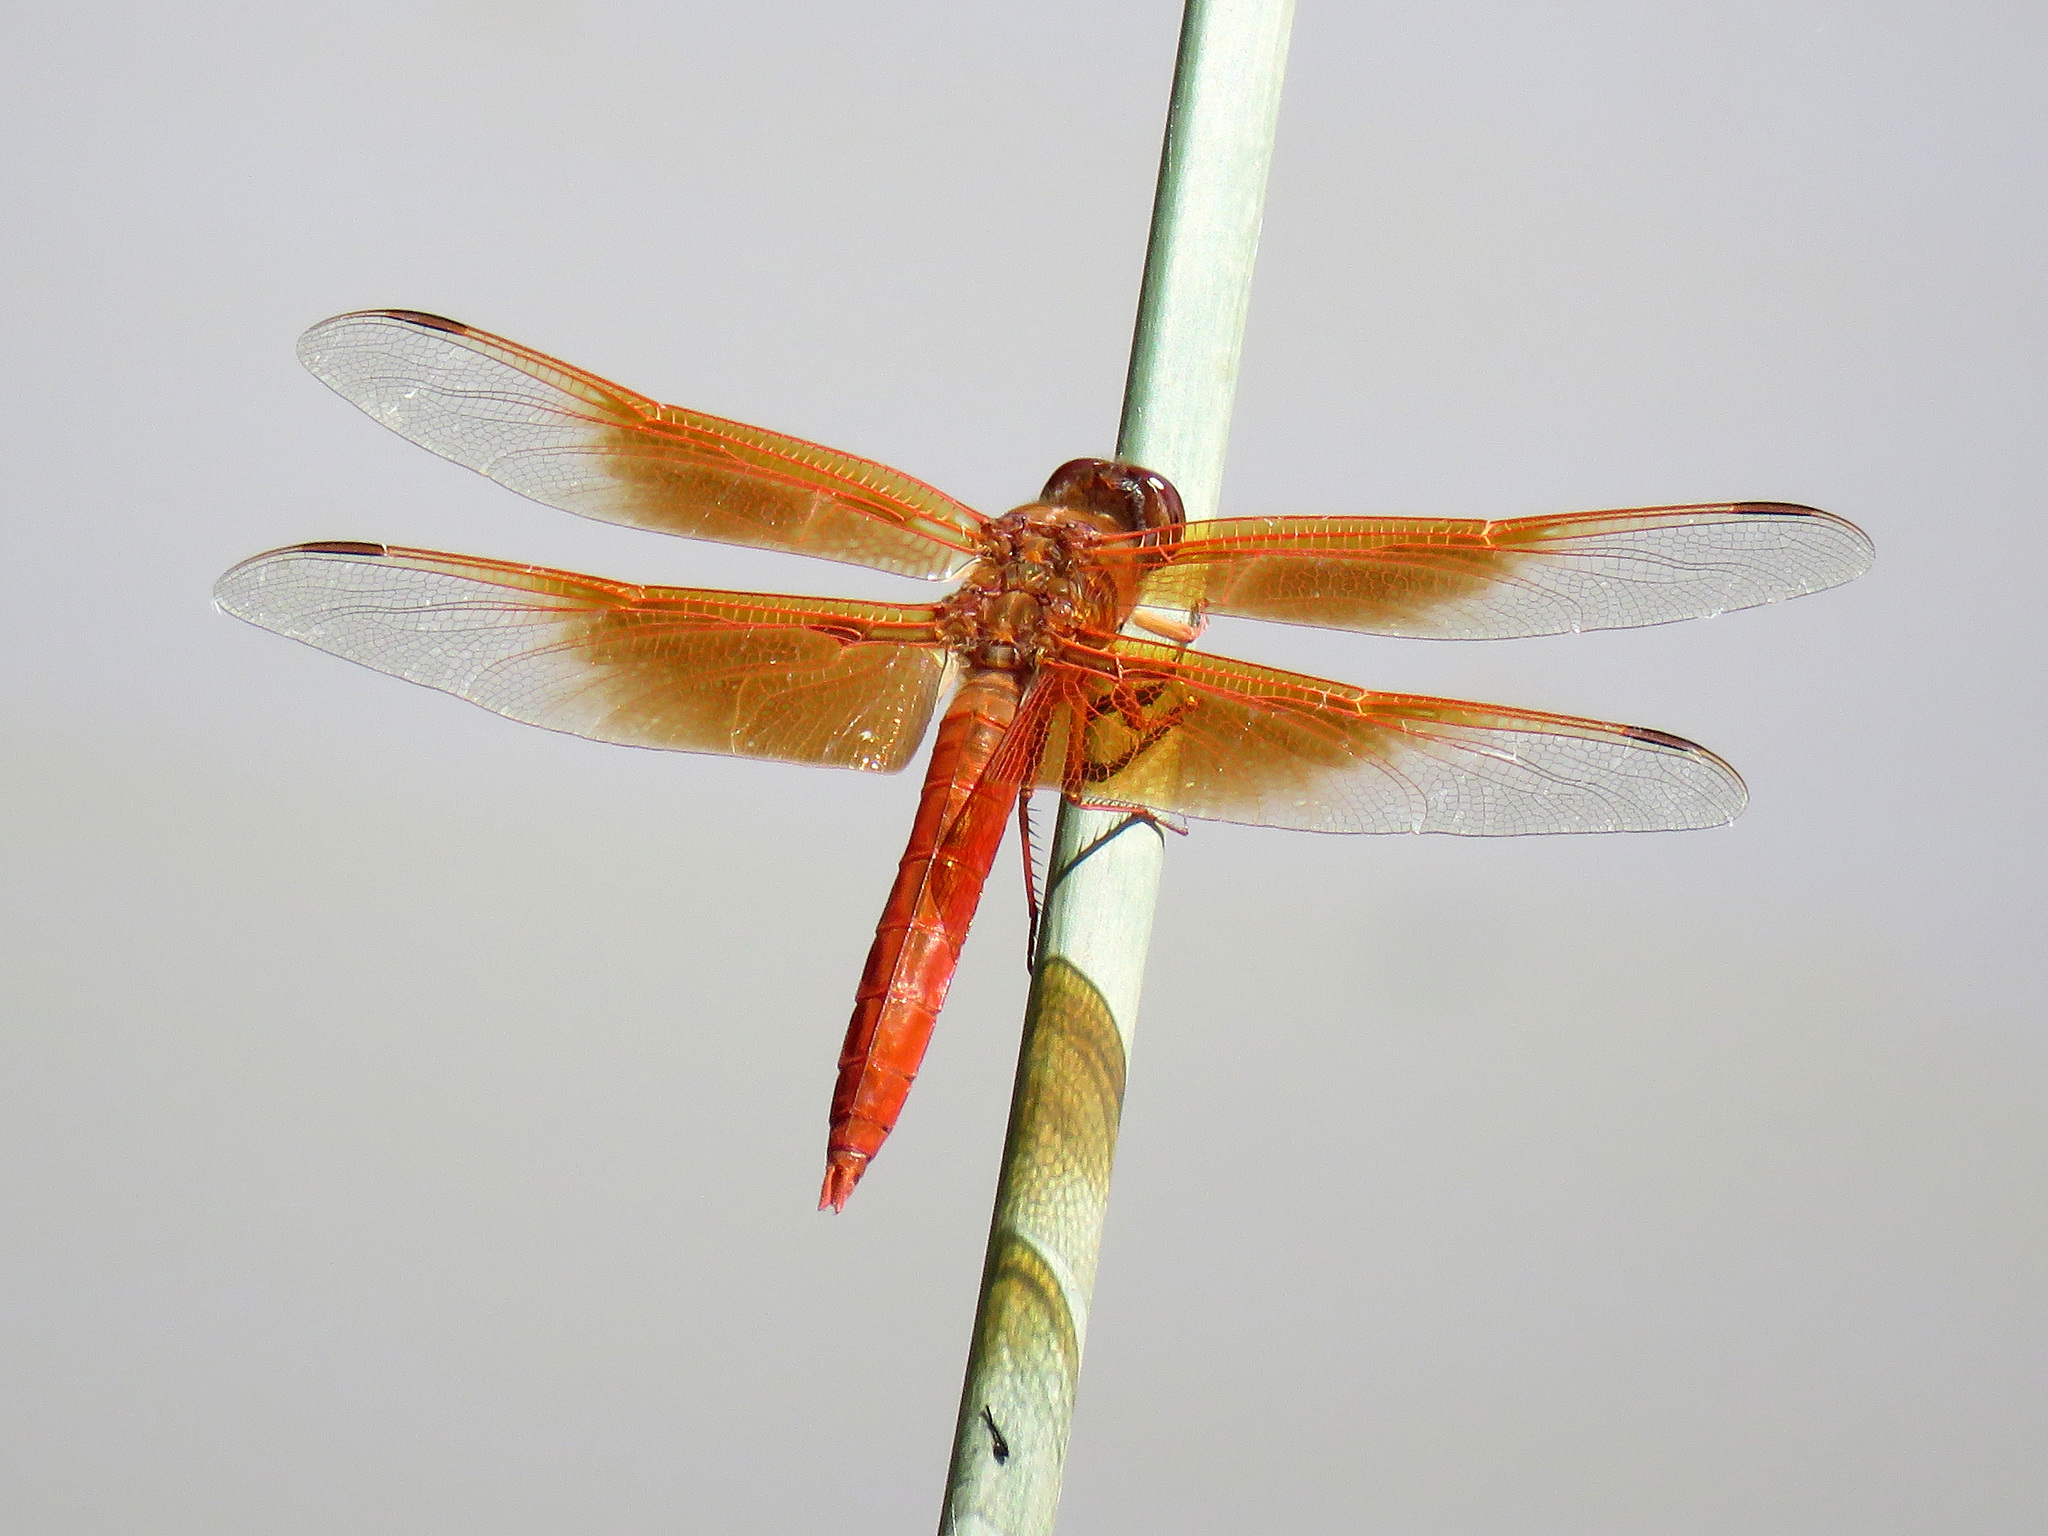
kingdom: Animalia
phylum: Arthropoda
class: Insecta
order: Odonata
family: Libellulidae
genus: Libellula
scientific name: Libellula saturata
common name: Flame skimmer
